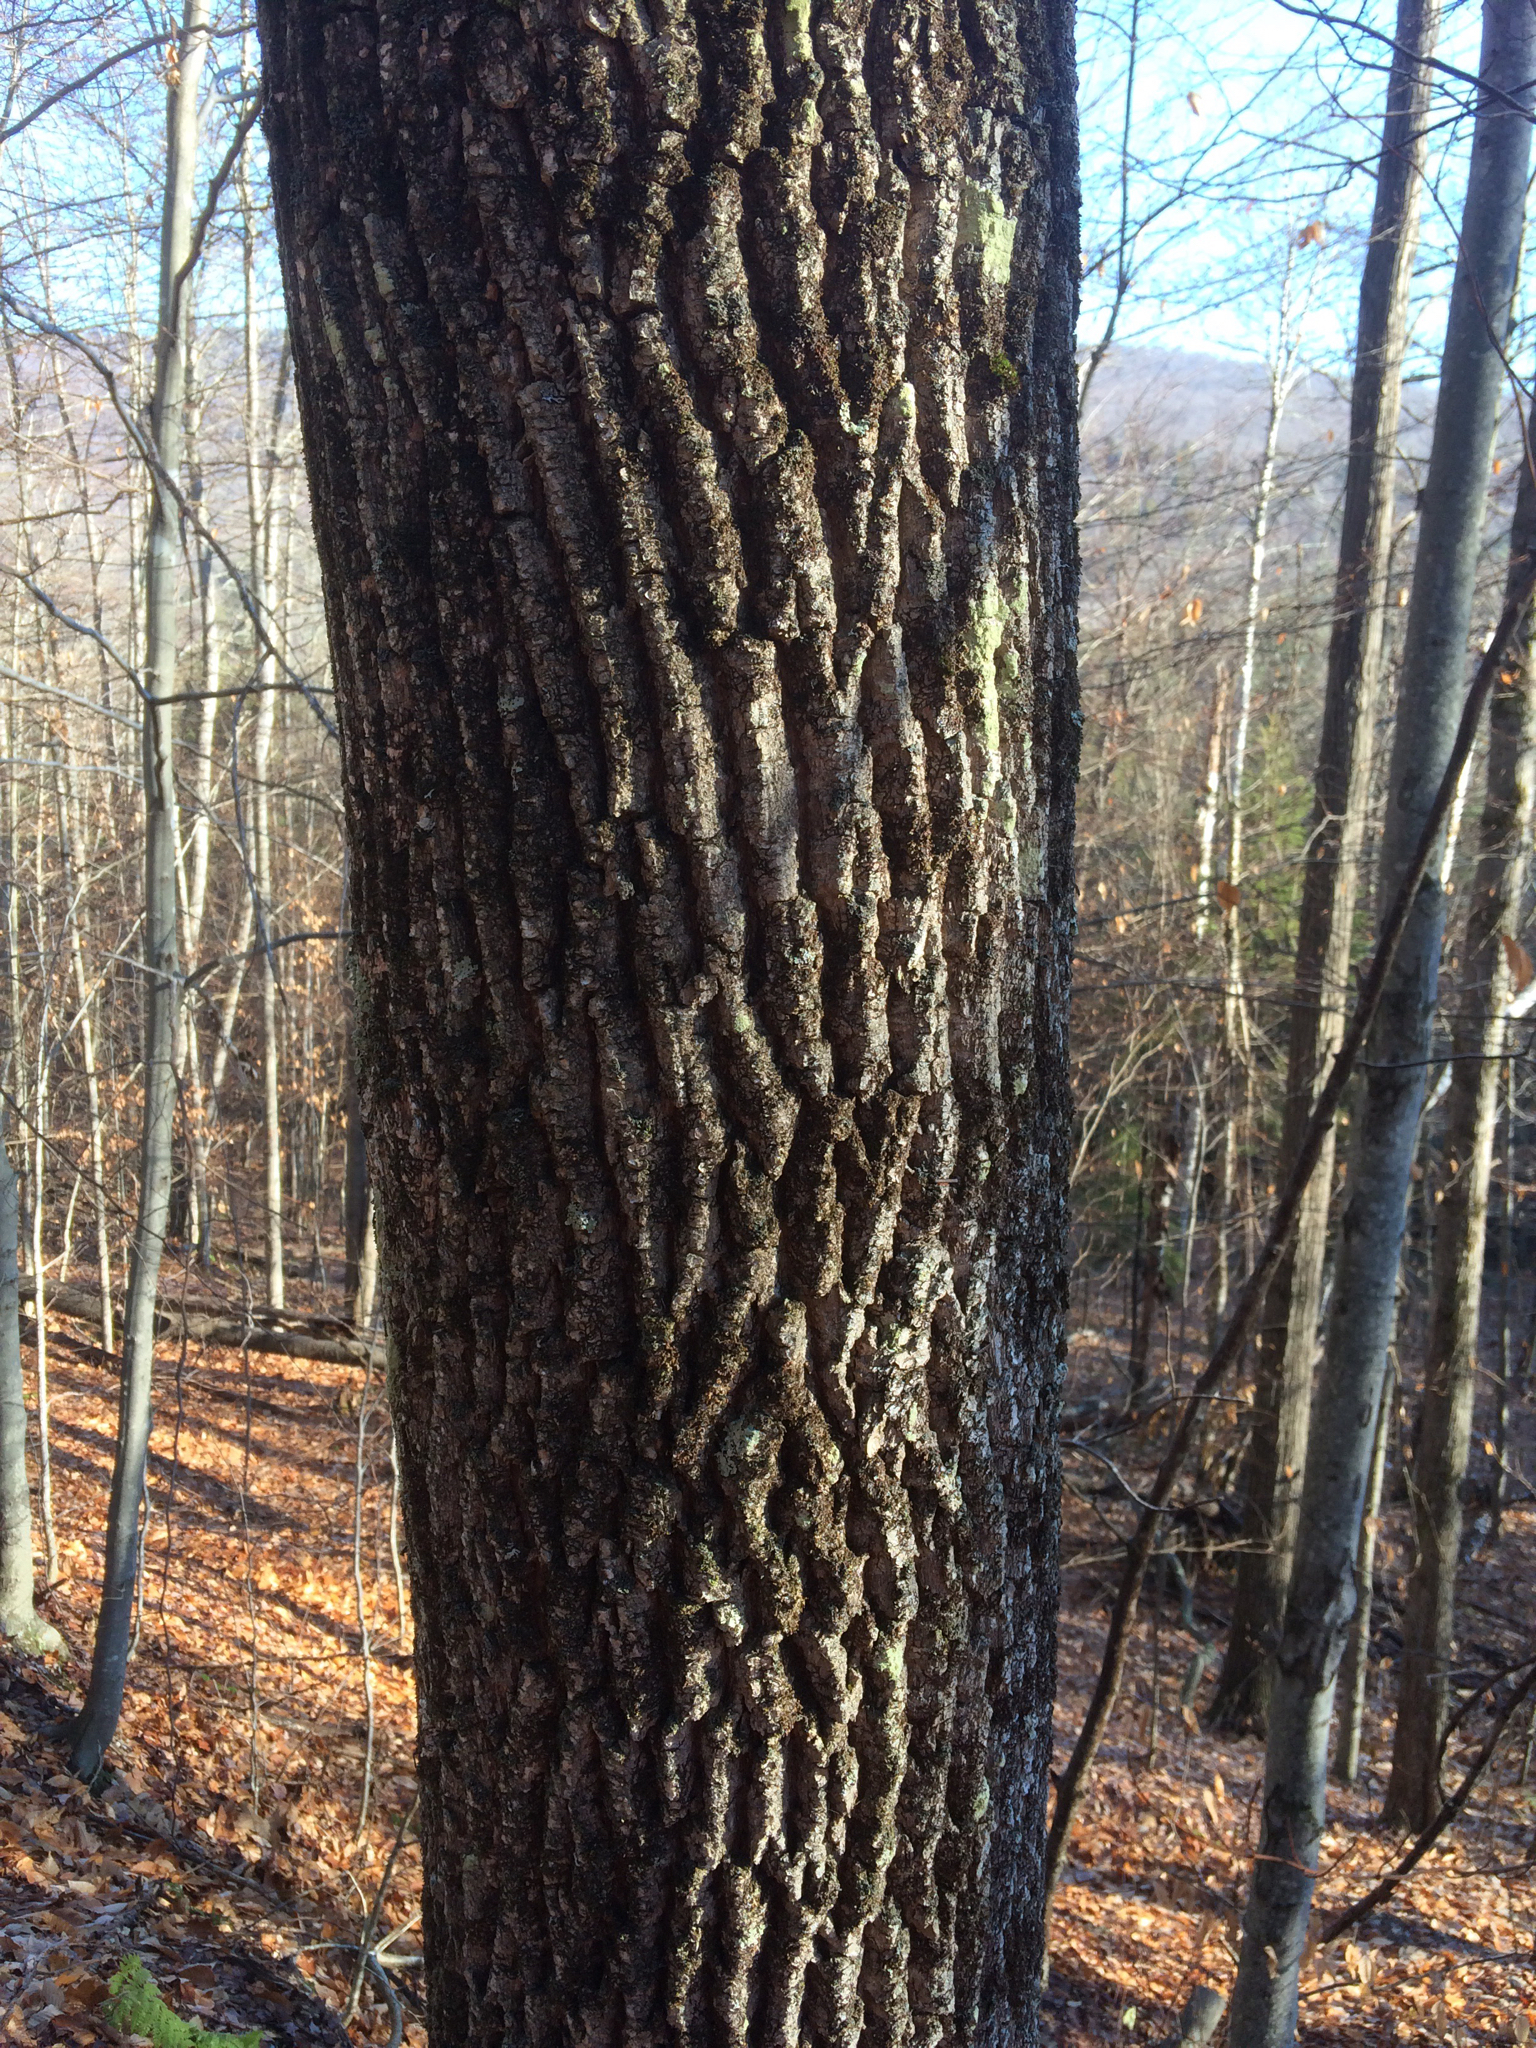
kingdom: Plantae
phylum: Tracheophyta
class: Magnoliopsida
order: Lamiales
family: Oleaceae
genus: Fraxinus
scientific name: Fraxinus americana
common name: White ash
